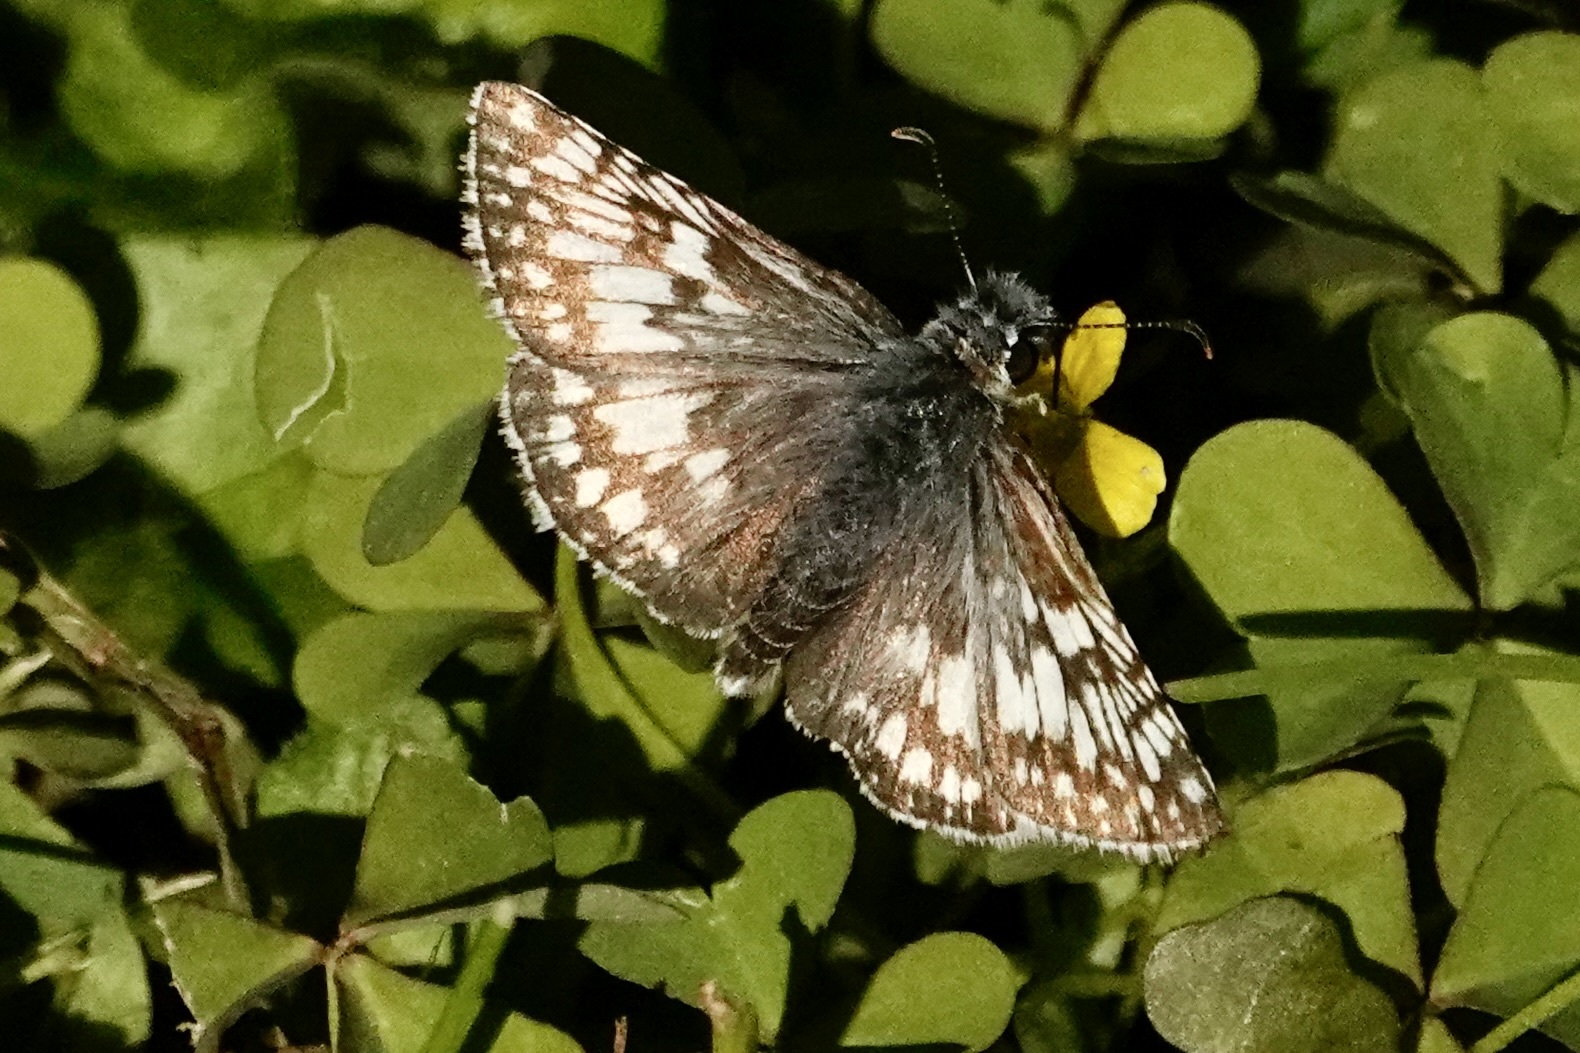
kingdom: Animalia
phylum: Arthropoda
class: Insecta
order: Lepidoptera
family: Hesperiidae
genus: Burnsius
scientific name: Burnsius communis
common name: Common checkered-skipper
